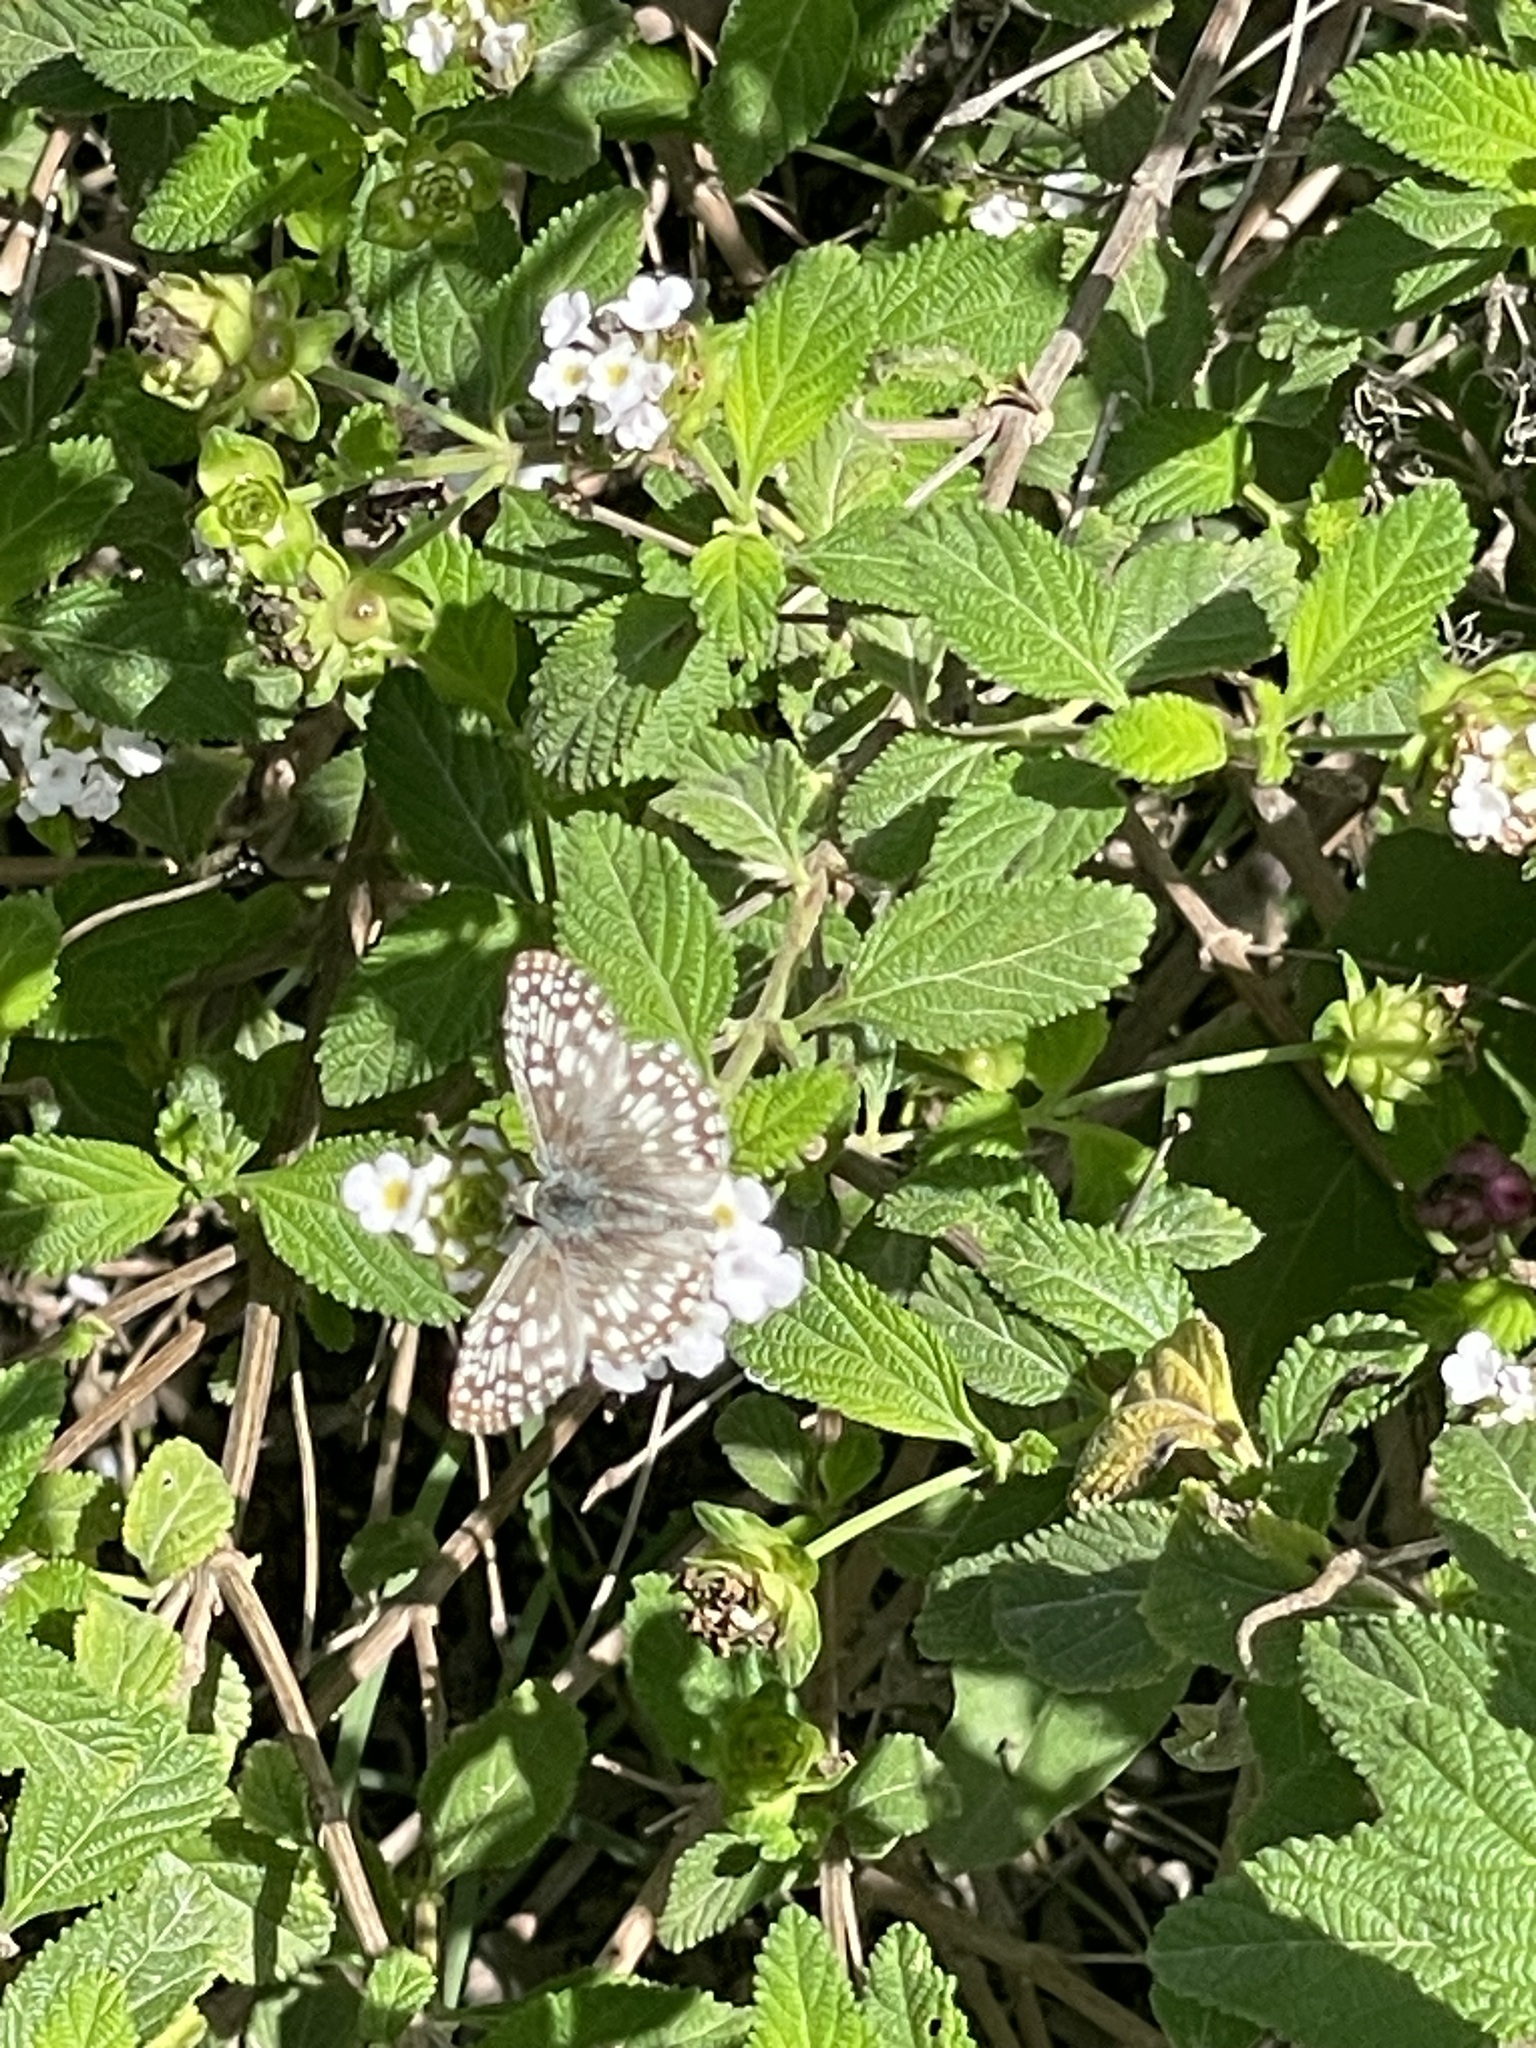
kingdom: Animalia
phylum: Arthropoda
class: Insecta
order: Lepidoptera
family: Hesperiidae
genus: Pyrgus
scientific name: Pyrgus oileus
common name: Tropical checkered-skipper
